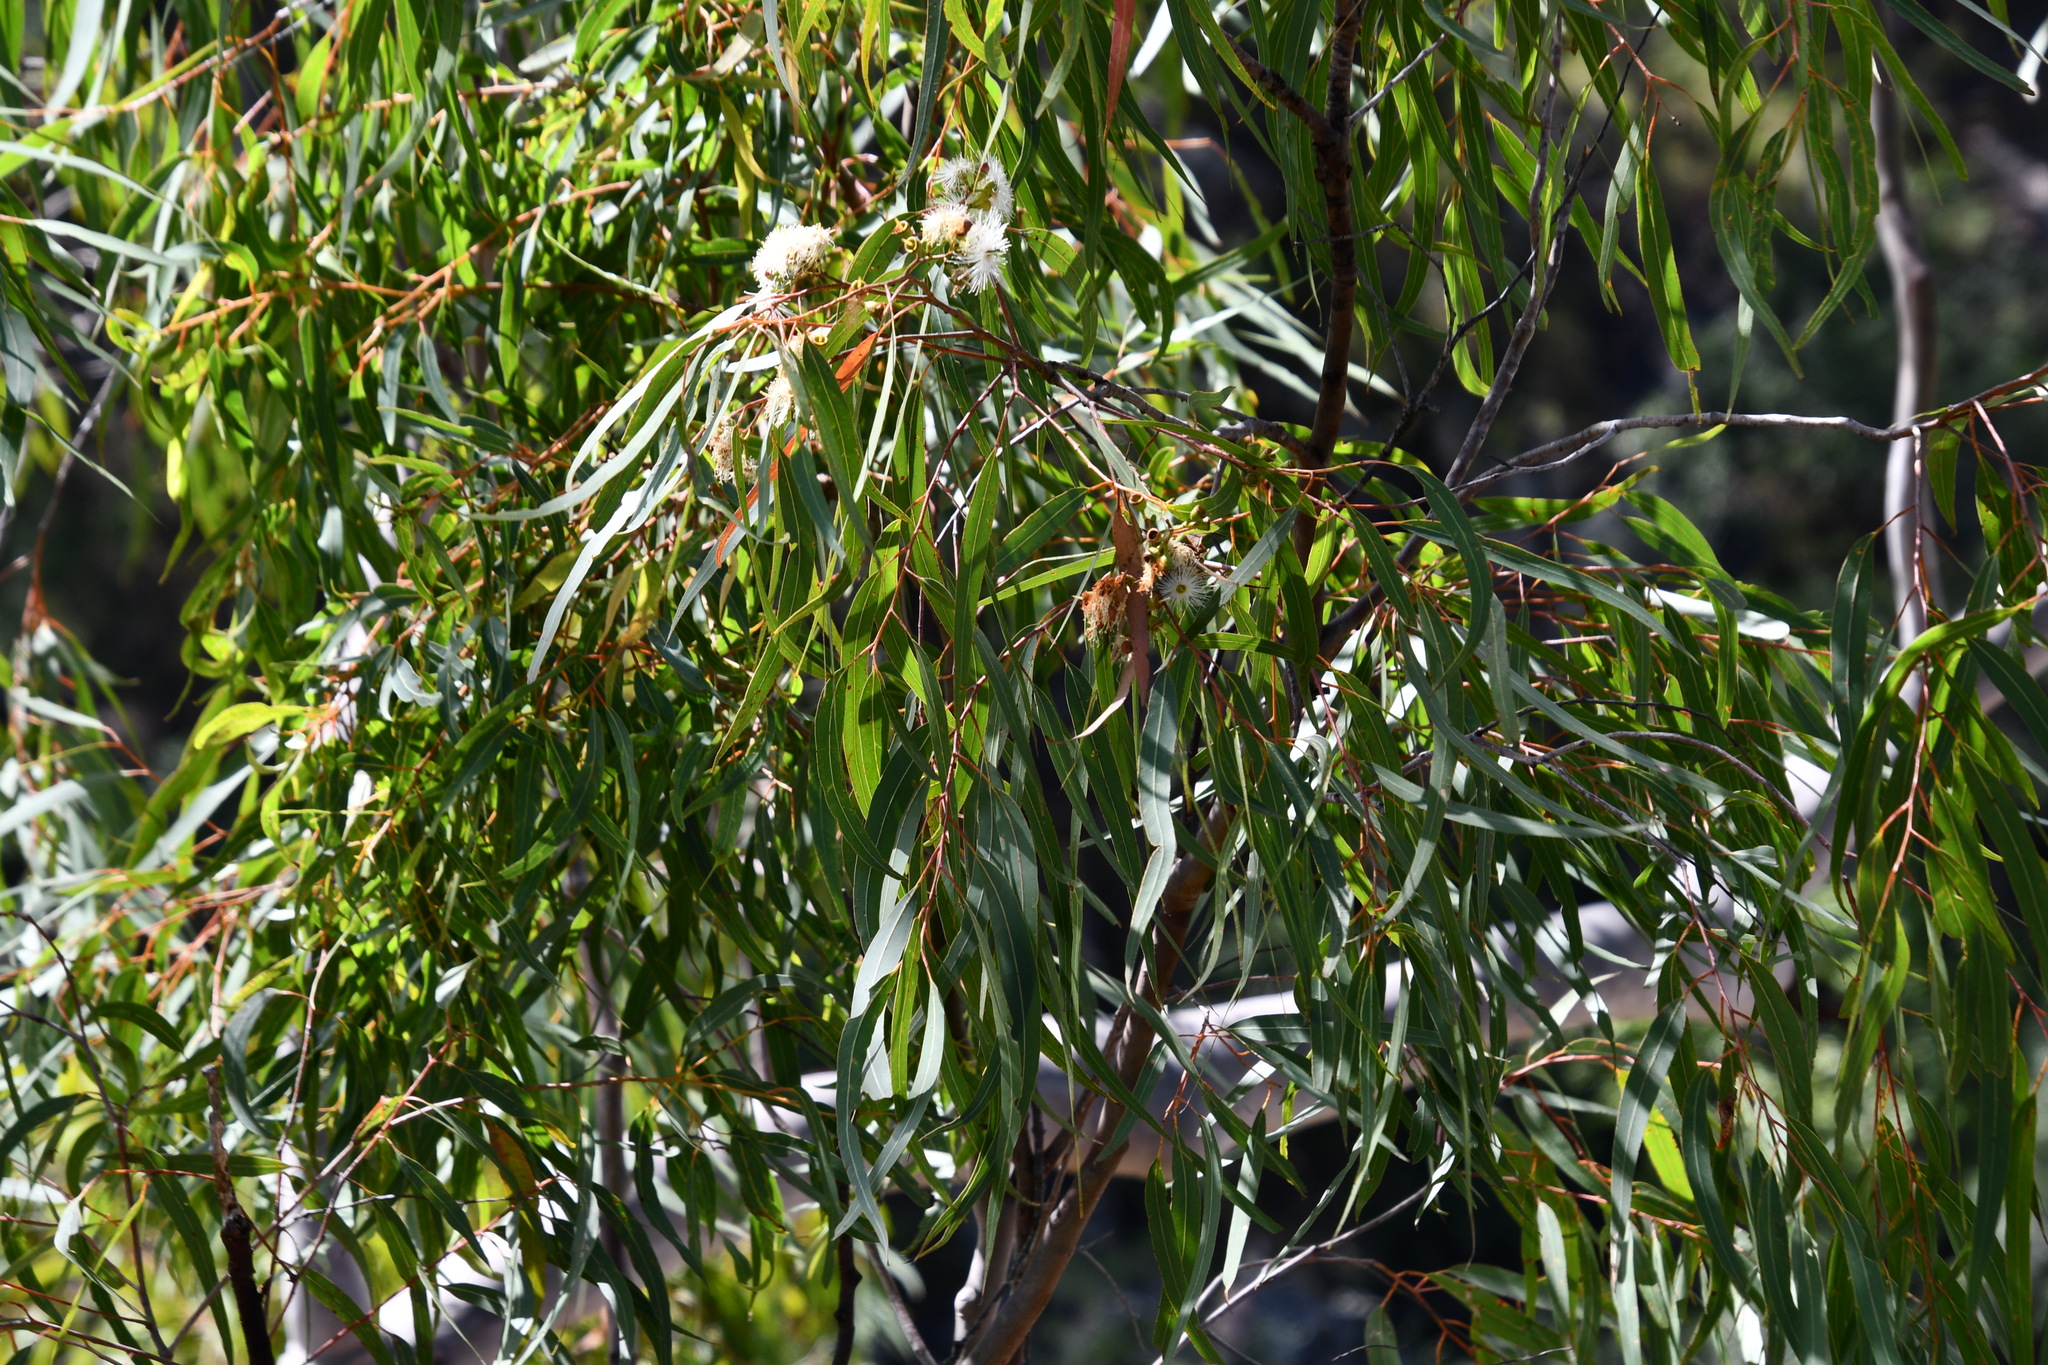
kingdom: Plantae
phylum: Tracheophyta
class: Magnoliopsida
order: Myrtales
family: Myrtaceae
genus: Corymbia
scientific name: Corymbia citriodora
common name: Lemonscented gum
